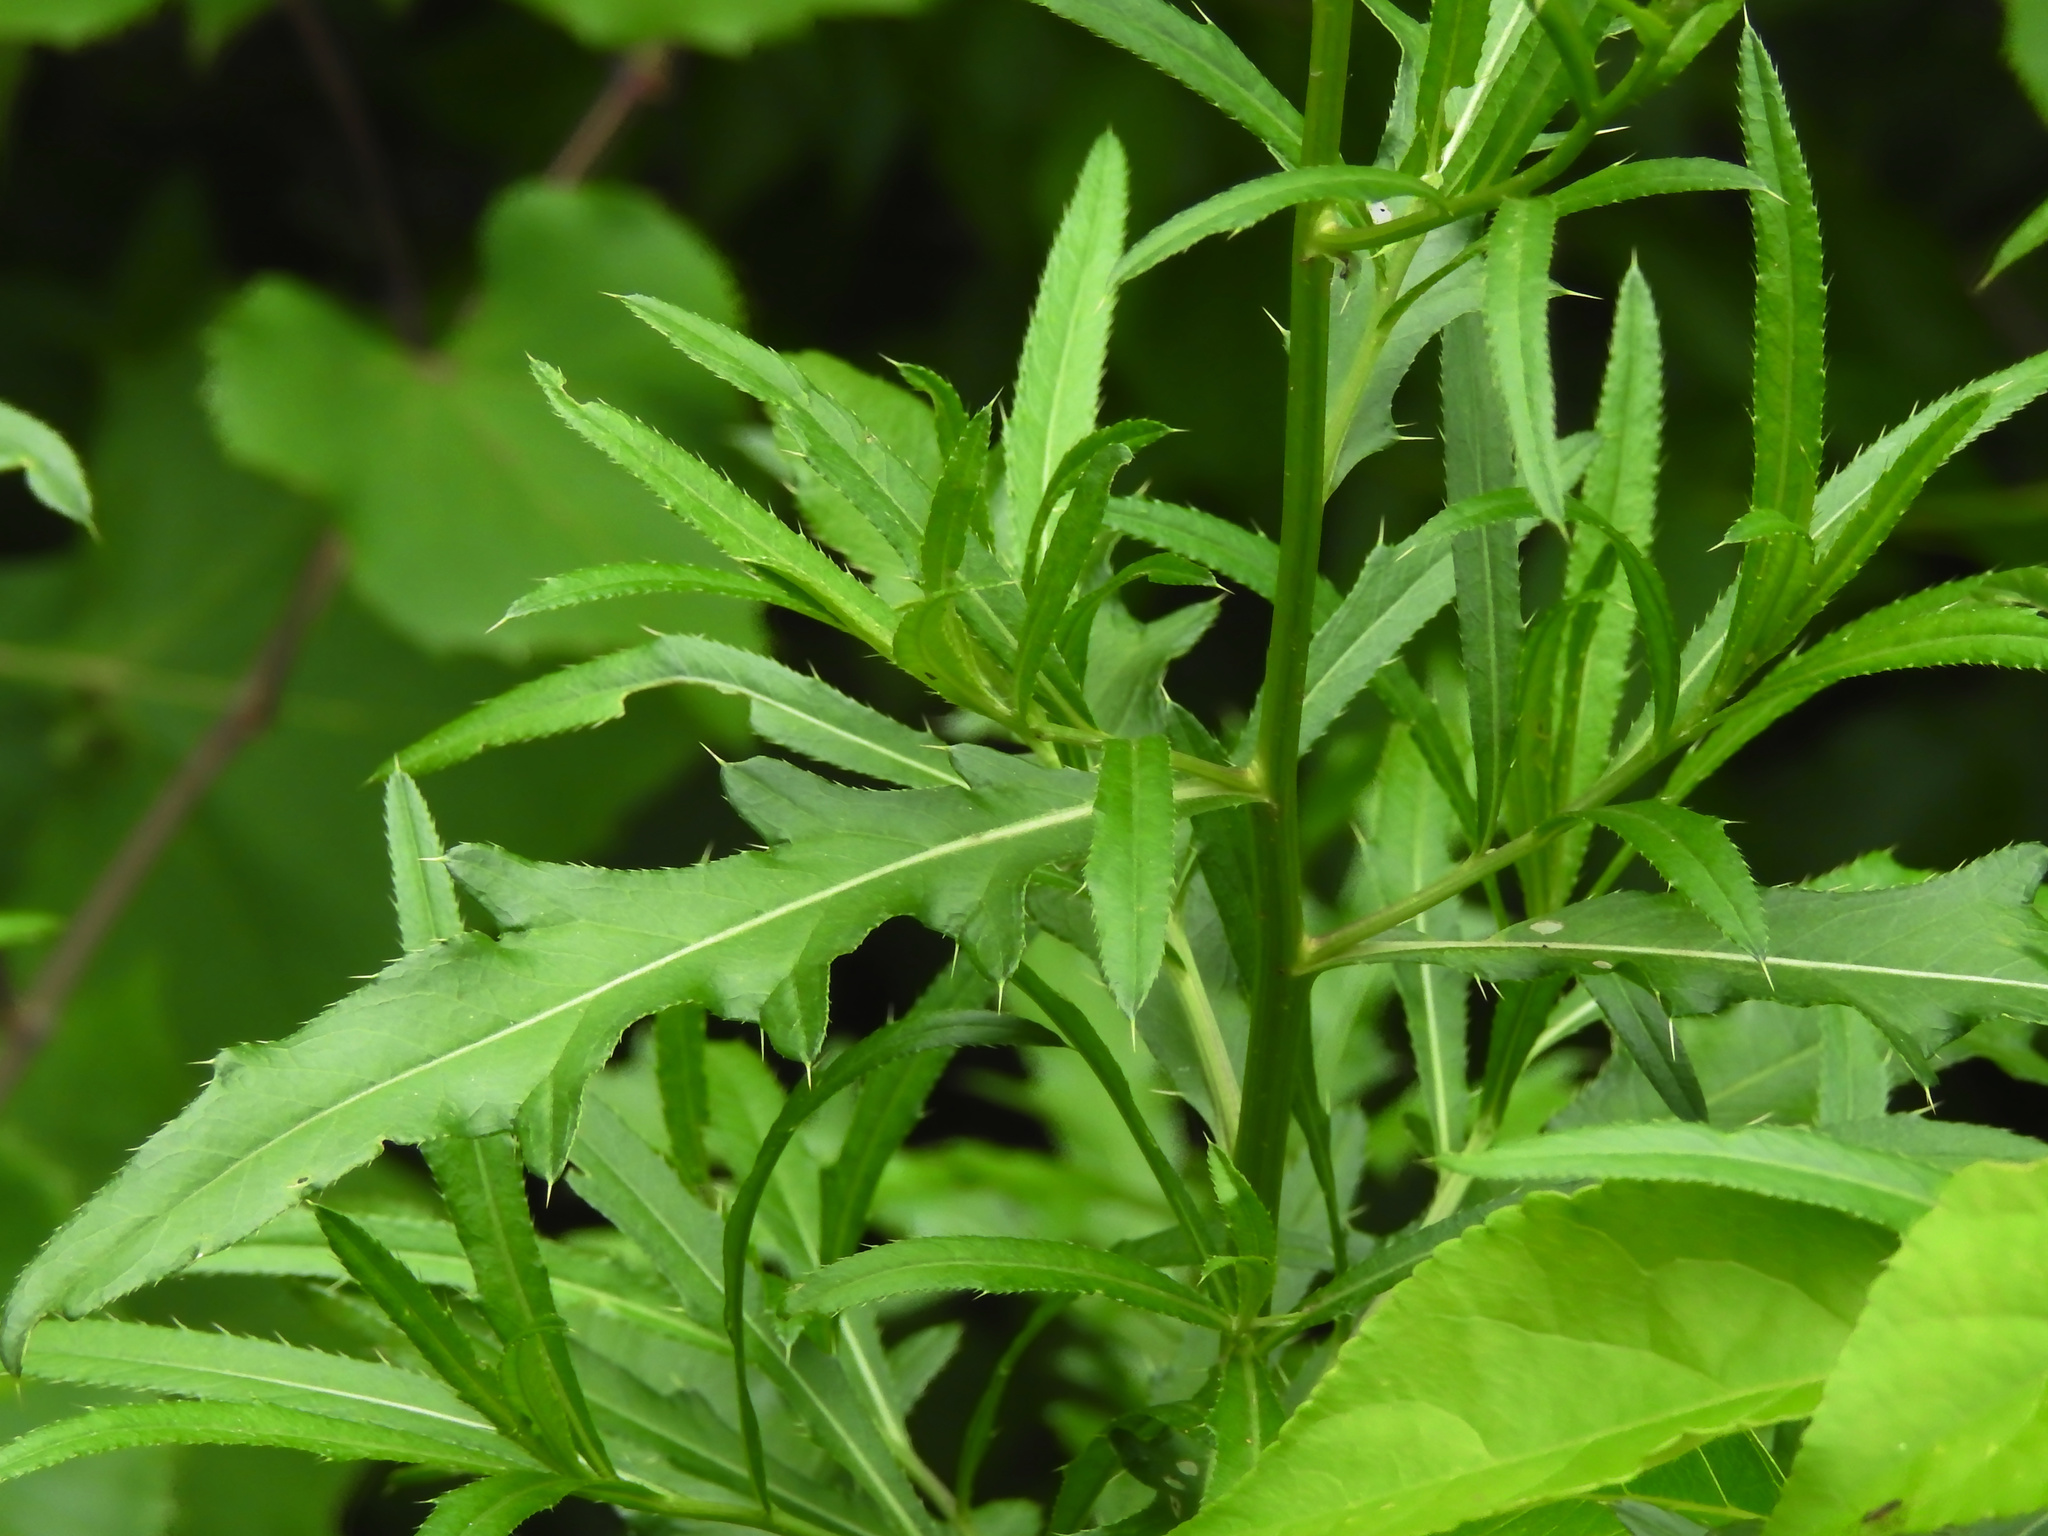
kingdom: Plantae
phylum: Tracheophyta
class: Magnoliopsida
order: Asterales
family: Asteraceae
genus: Cirsium
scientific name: Cirsium arvense
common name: Creeping thistle
